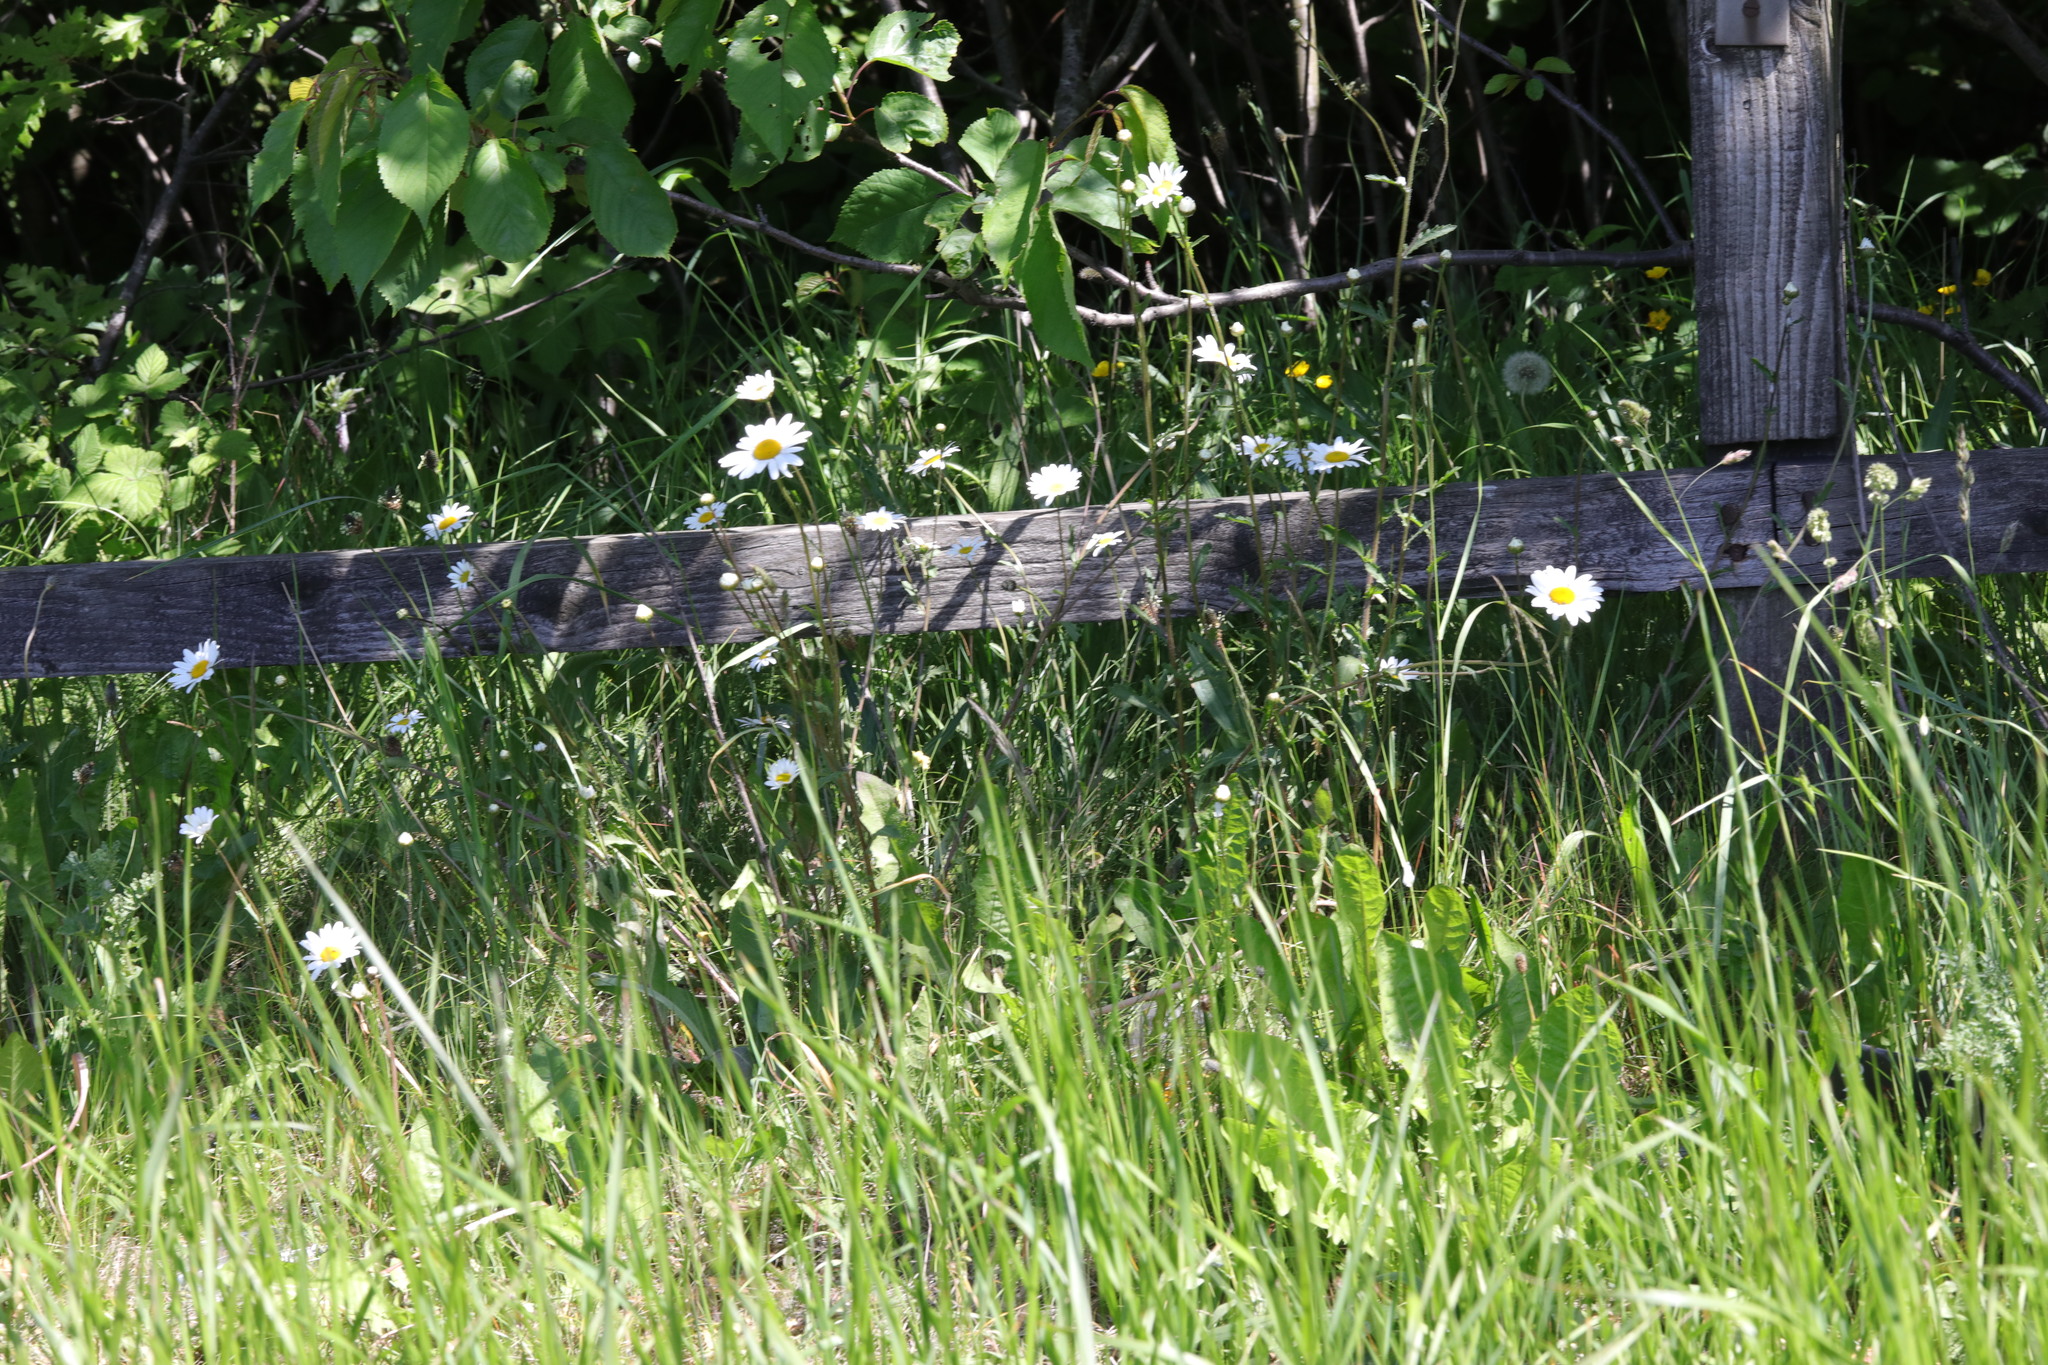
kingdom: Plantae
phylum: Tracheophyta
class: Magnoliopsida
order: Asterales
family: Asteraceae
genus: Leucanthemum
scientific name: Leucanthemum vulgare
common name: Oxeye daisy
